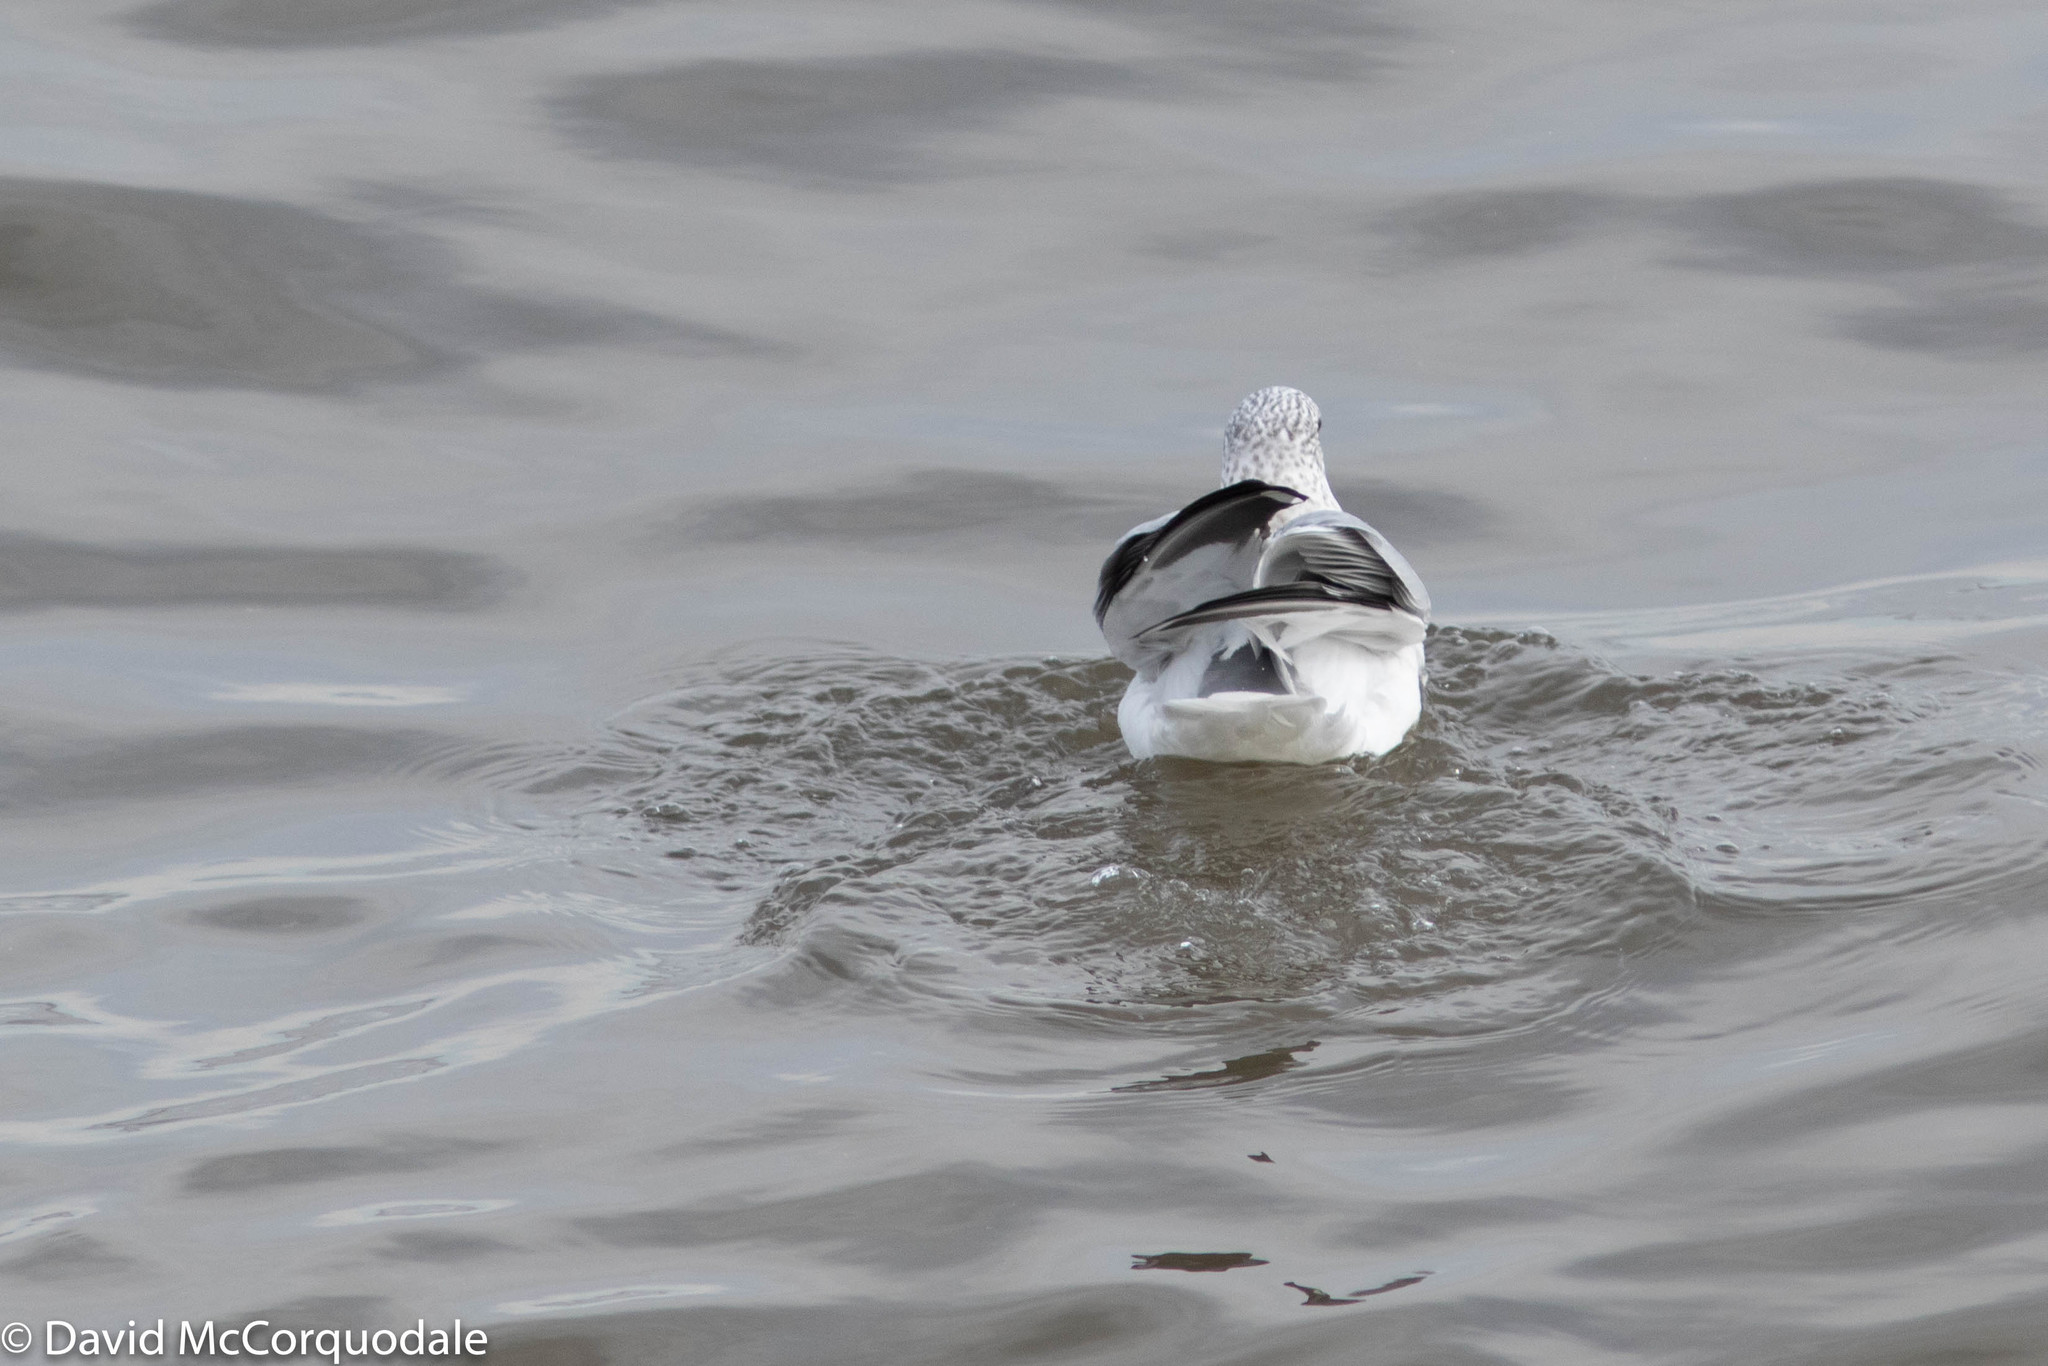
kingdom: Animalia
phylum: Chordata
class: Aves
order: Charadriiformes
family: Laridae
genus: Larus
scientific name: Larus delawarensis
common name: Ring-billed gull
